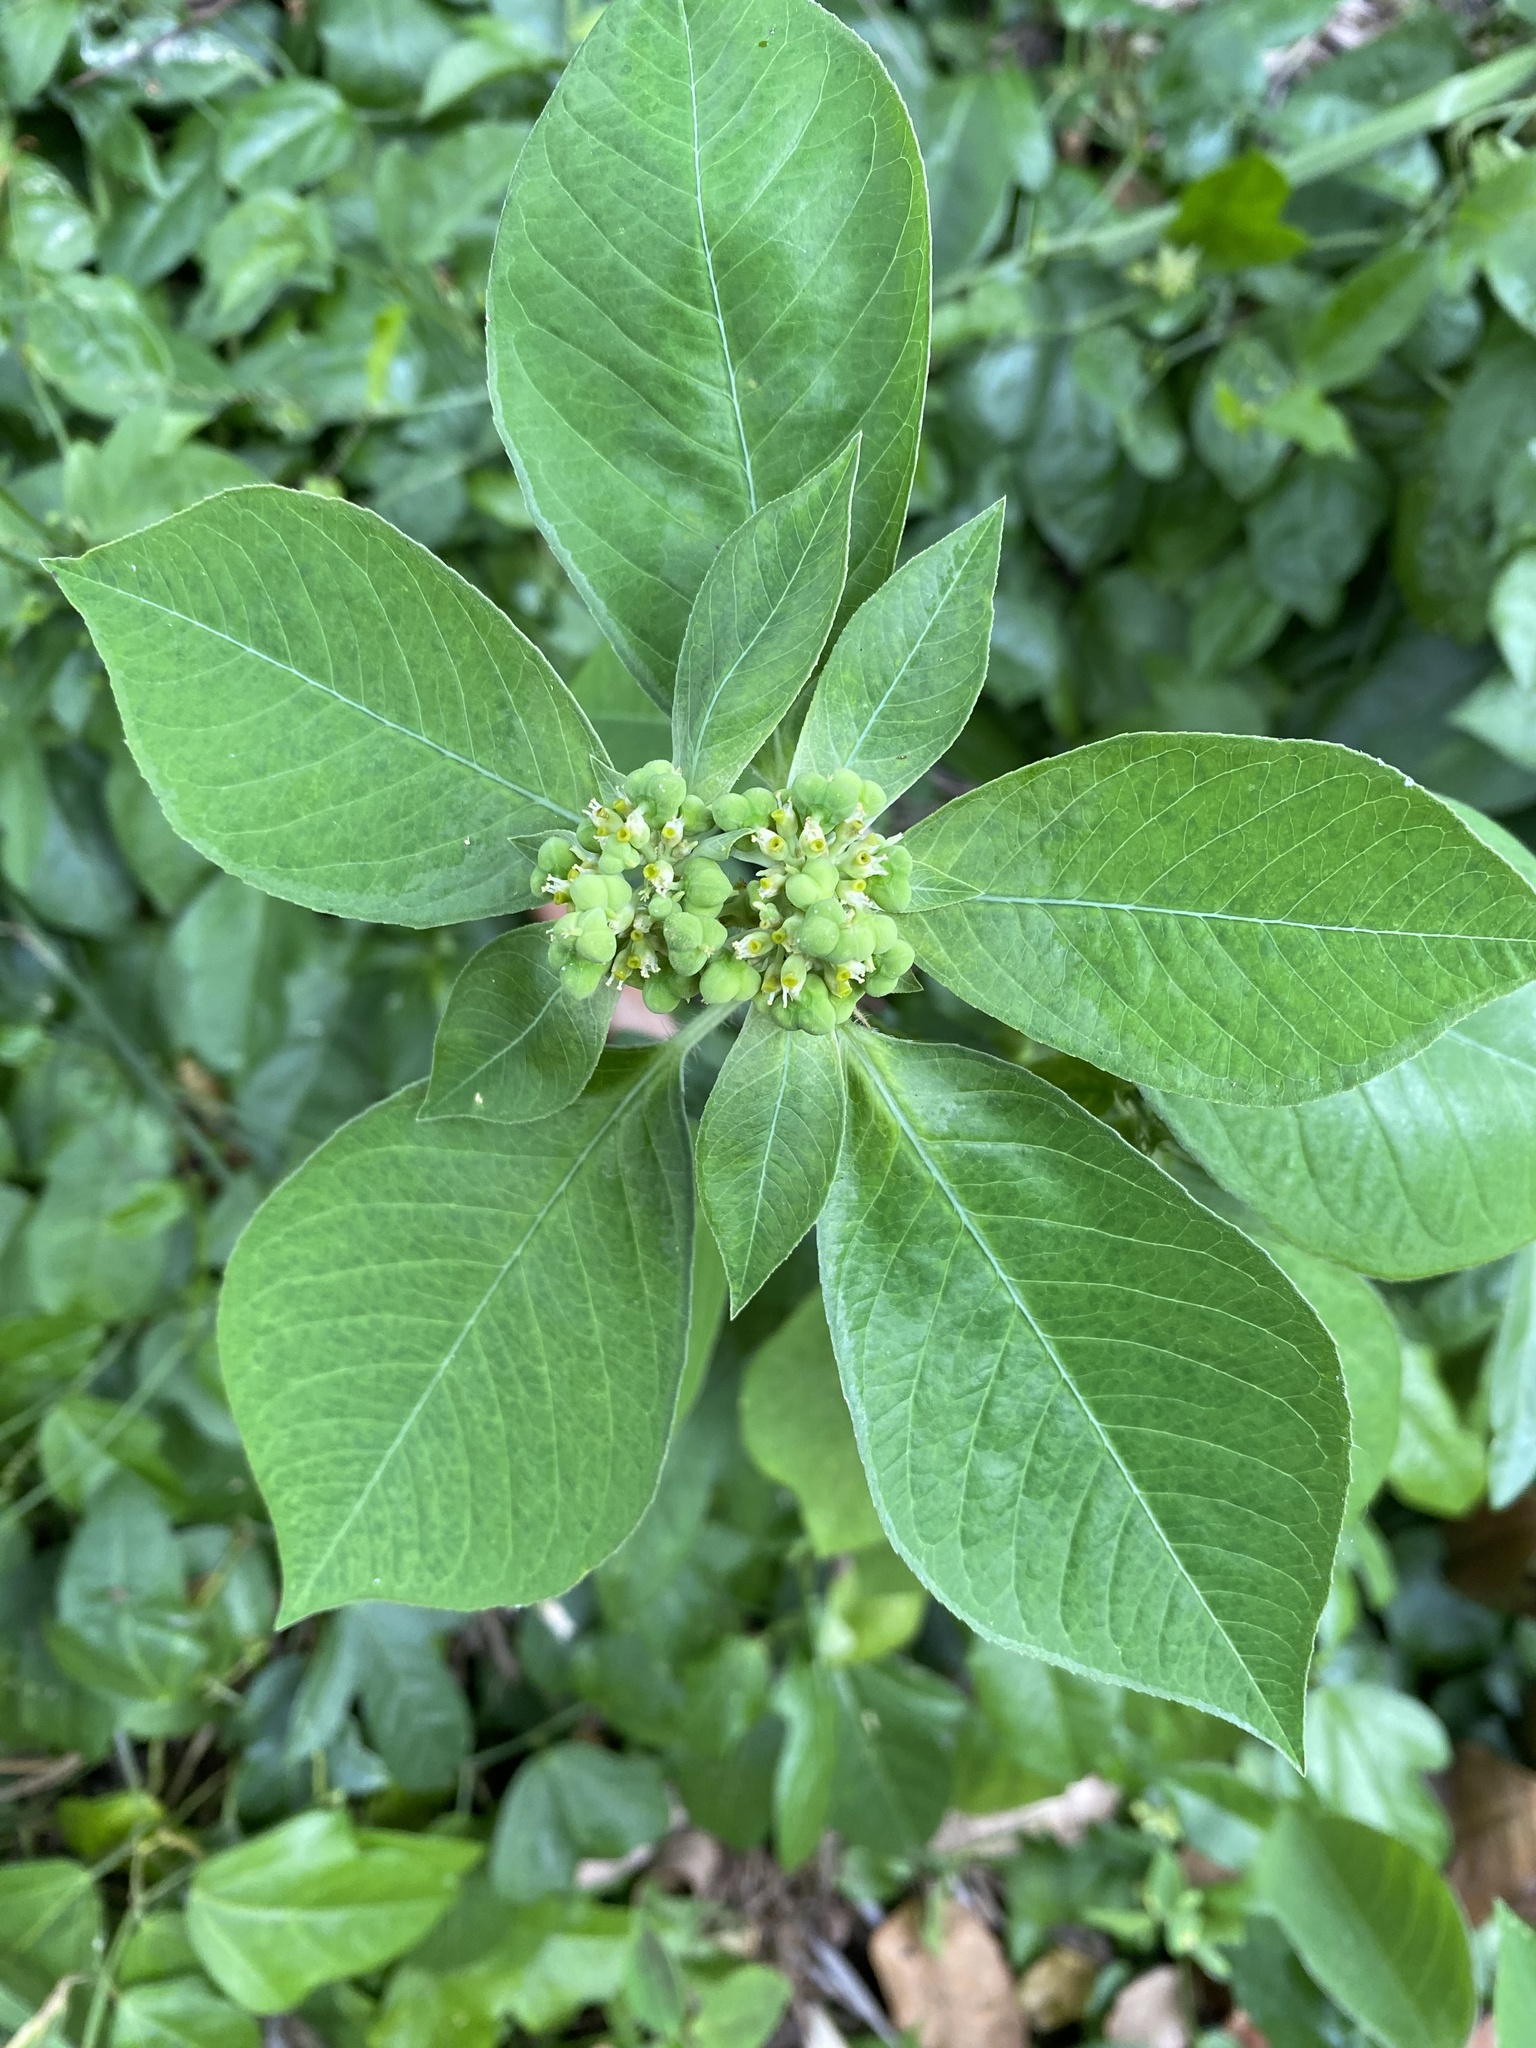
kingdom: Plantae
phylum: Tracheophyta
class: Magnoliopsida
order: Malpighiales
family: Euphorbiaceae
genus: Euphorbia
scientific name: Euphorbia heterophylla
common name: Mexican fireplant
